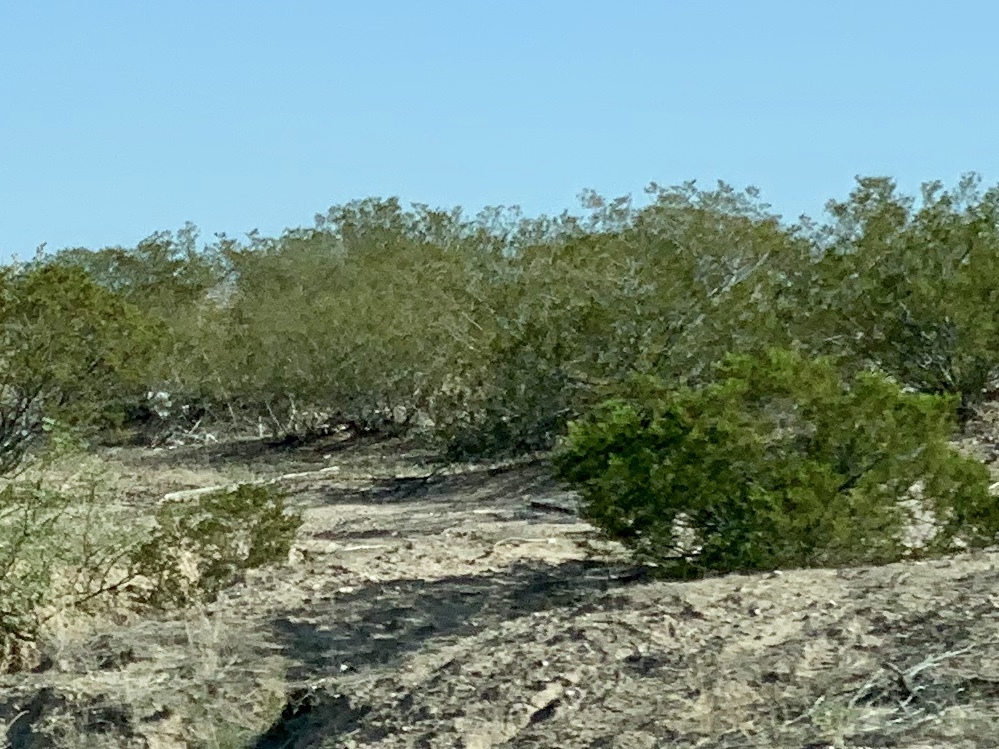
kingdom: Plantae
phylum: Tracheophyta
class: Magnoliopsida
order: Zygophyllales
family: Zygophyllaceae
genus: Larrea
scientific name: Larrea tridentata
